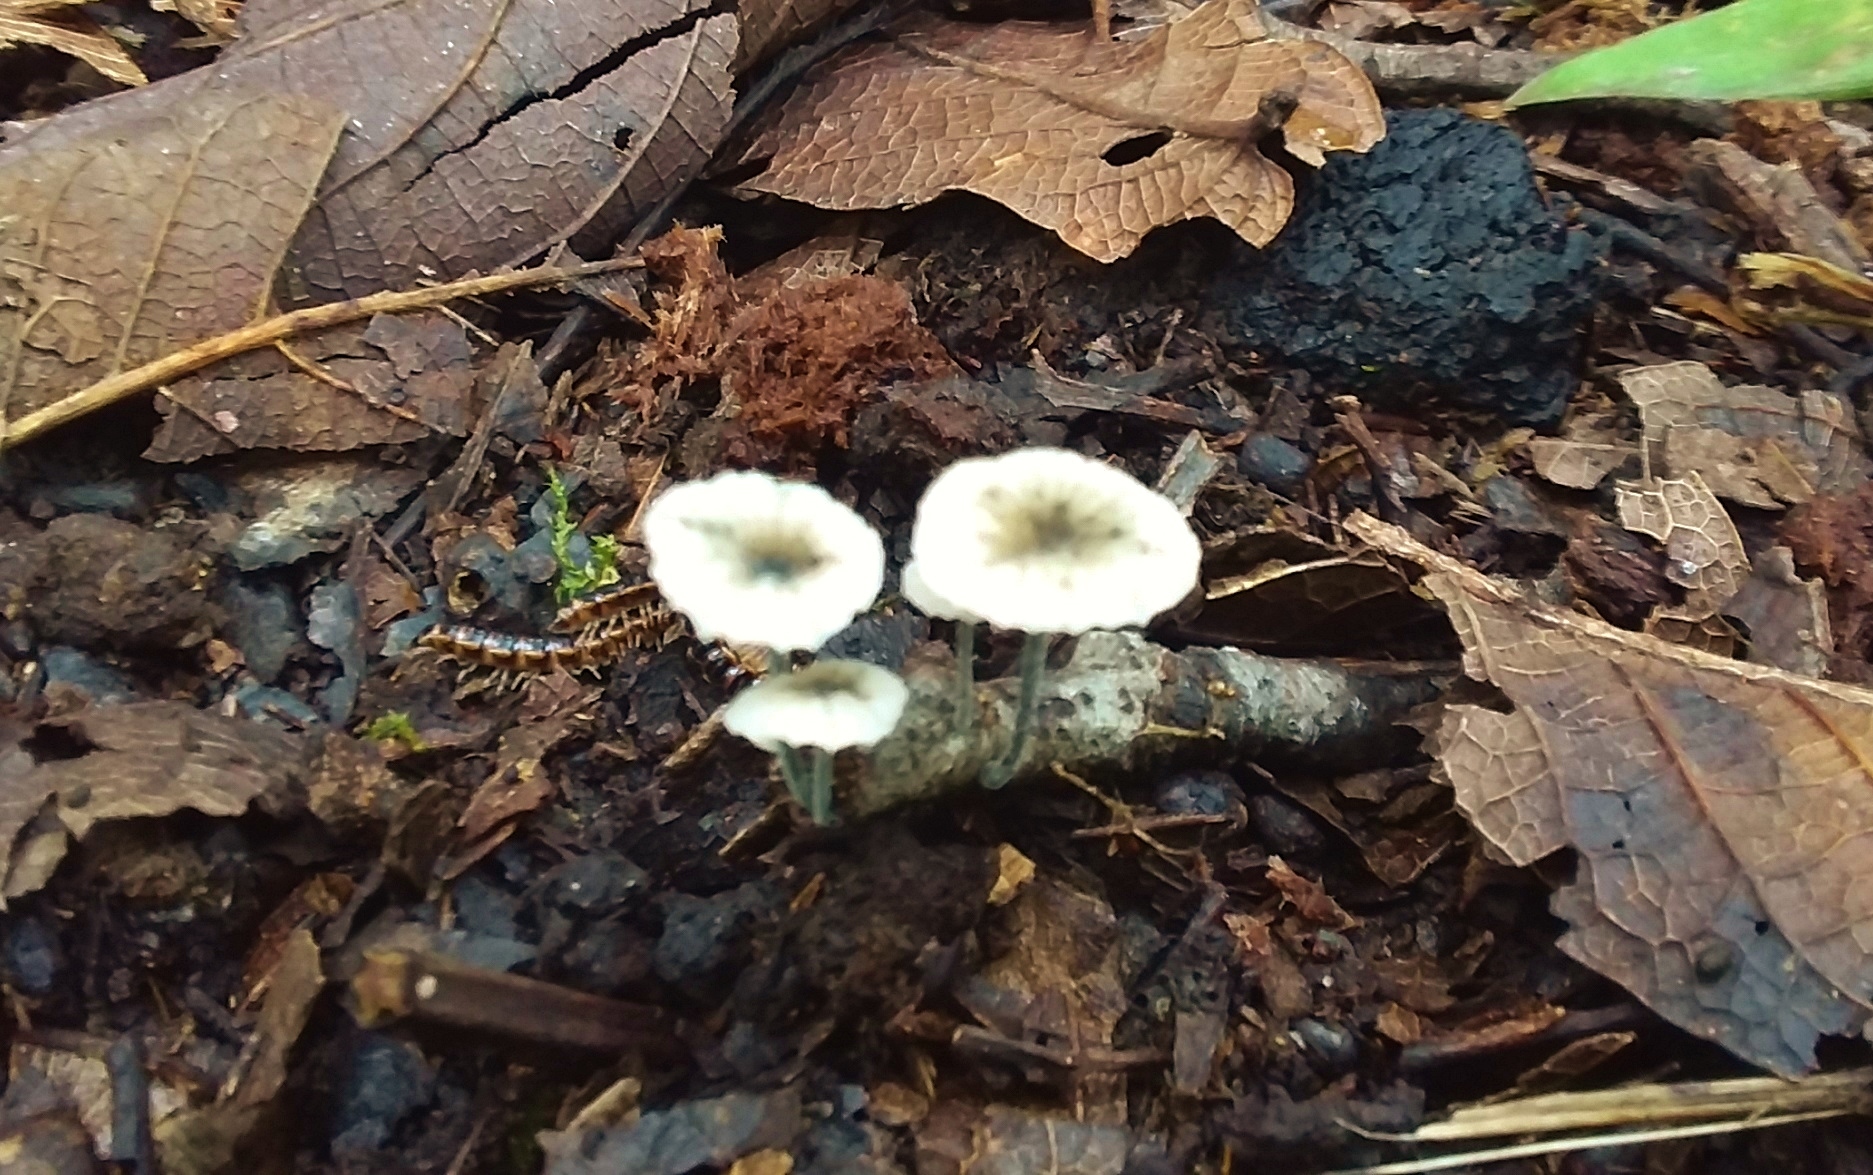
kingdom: Fungi
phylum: Basidiomycota
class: Agaricomycetes
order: Agaricales
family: Marasmiaceae
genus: Tetrapyrgos
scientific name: Tetrapyrgos nigripes
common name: Black-stalked marasmius
